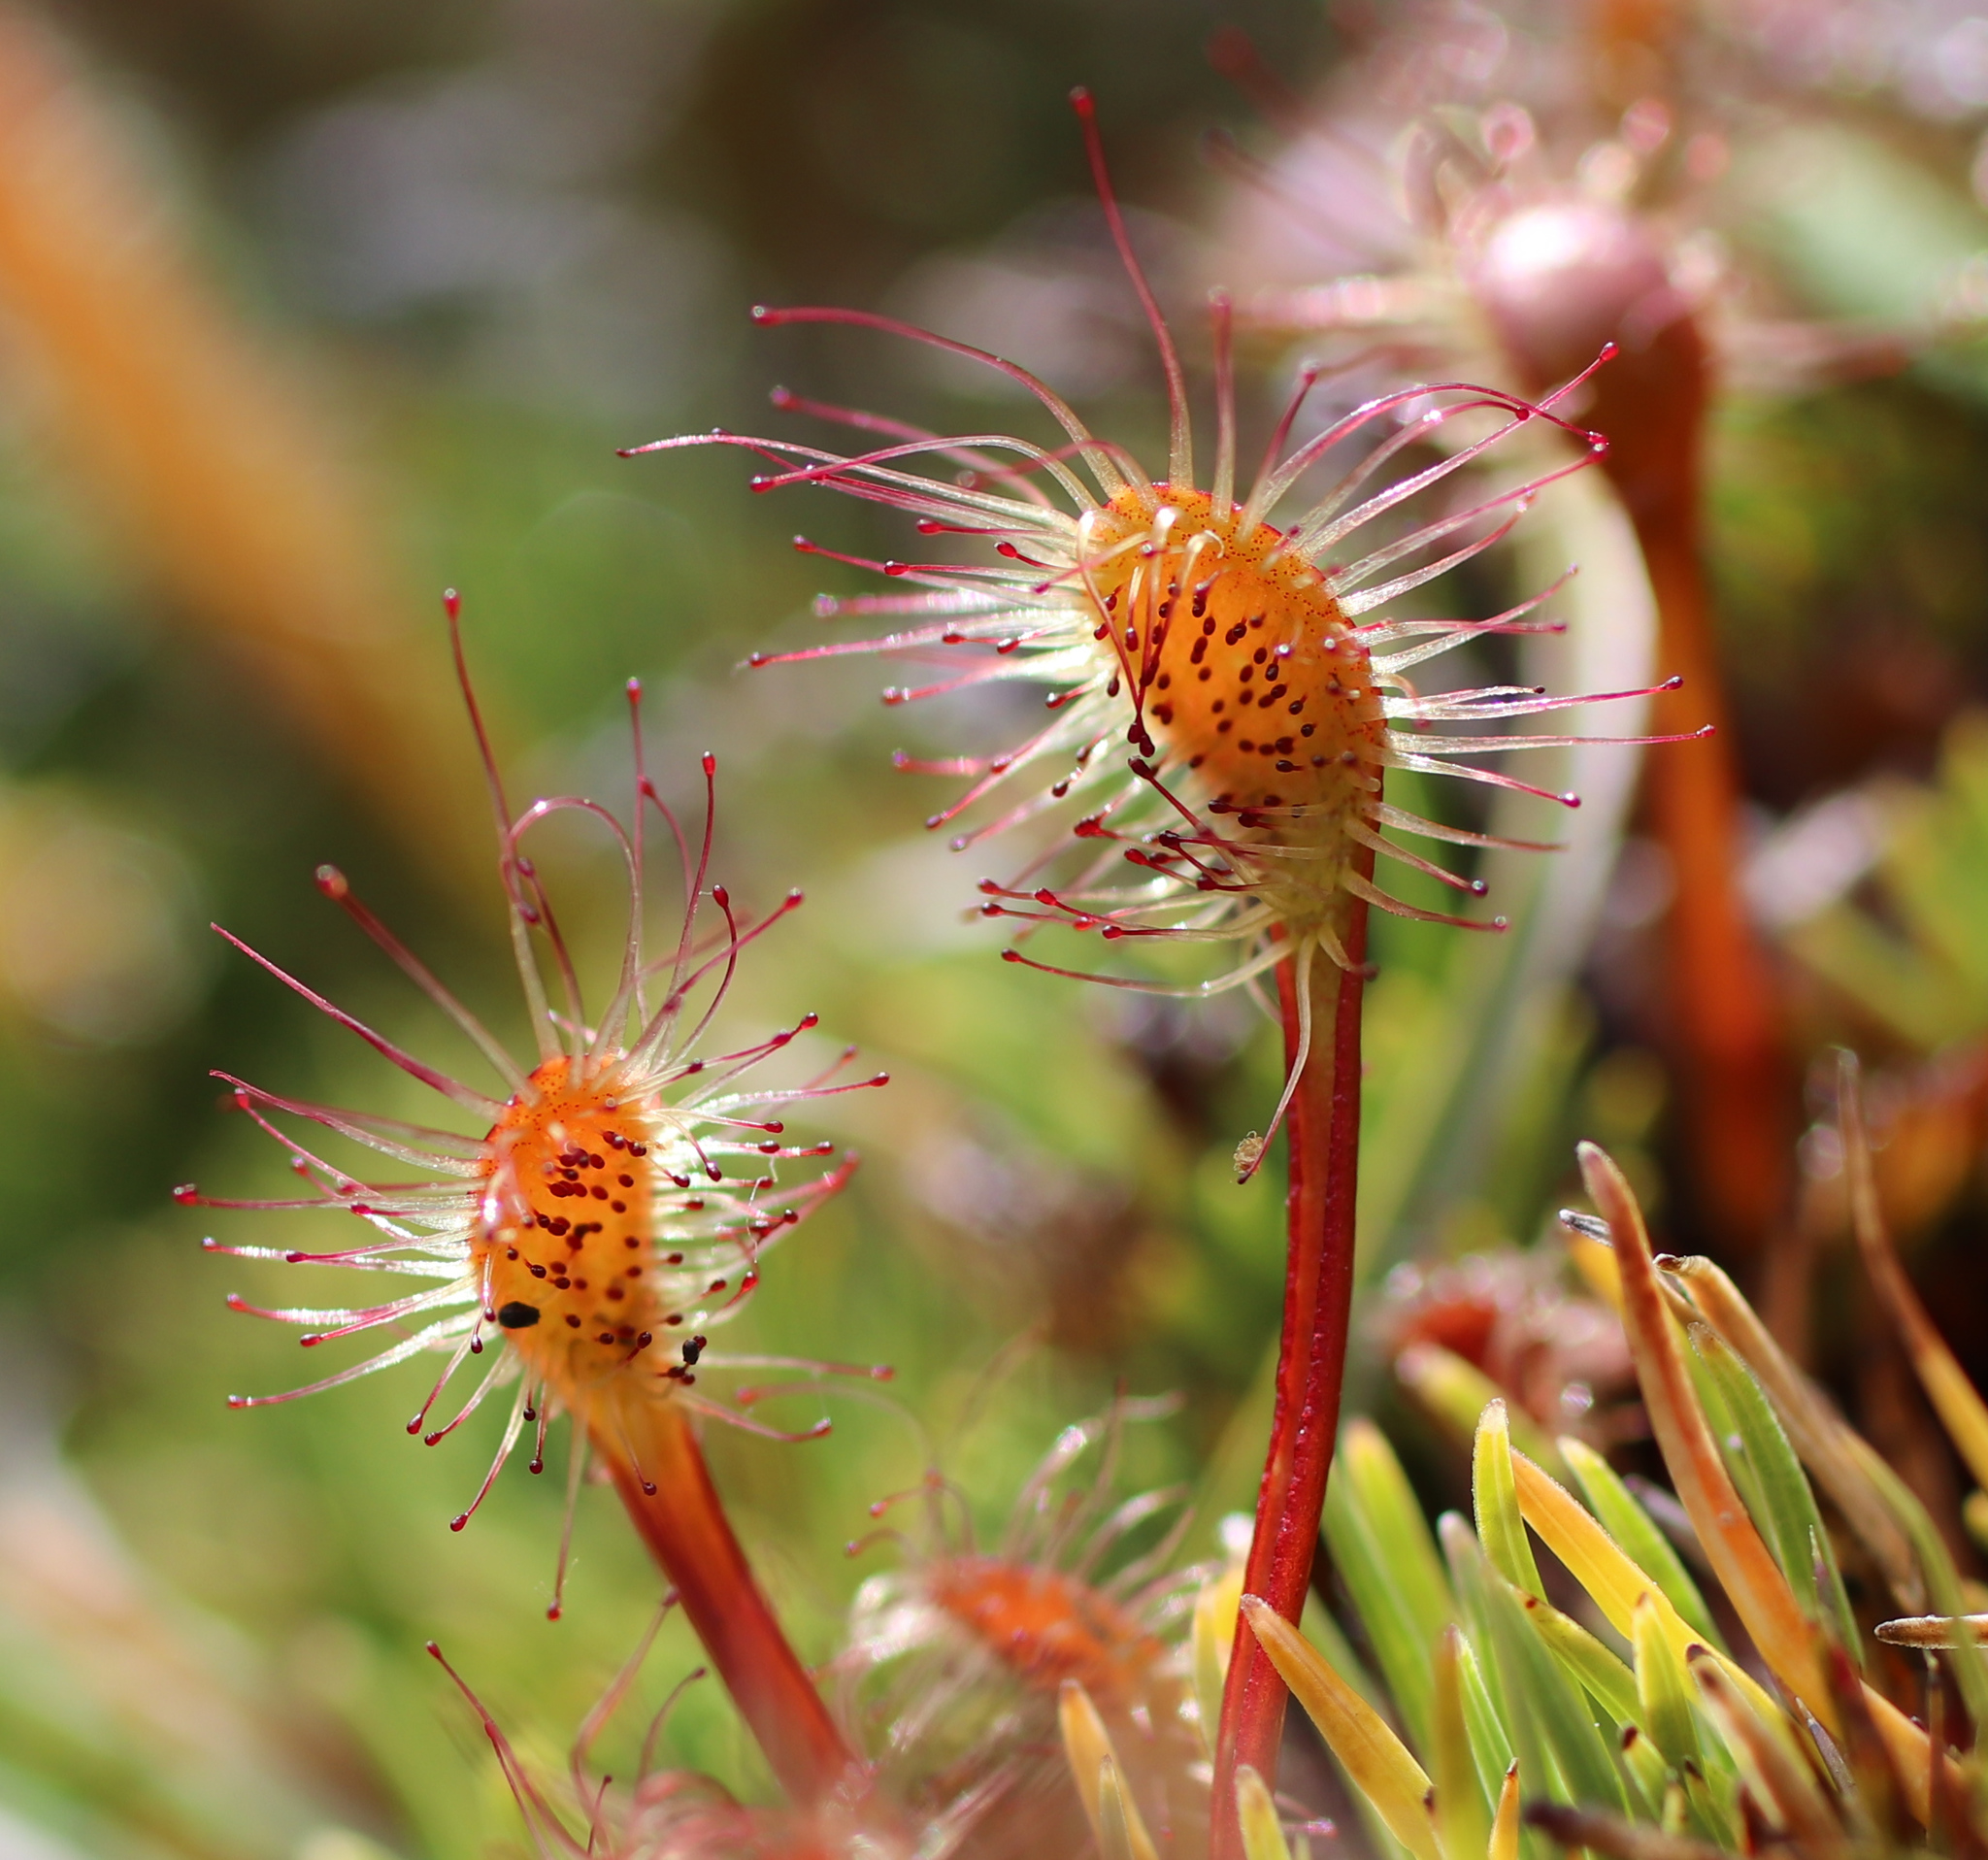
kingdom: Plantae
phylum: Tracheophyta
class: Magnoliopsida
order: Caryophyllales
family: Droseraceae
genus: Drosera
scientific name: Drosera stenopetala
